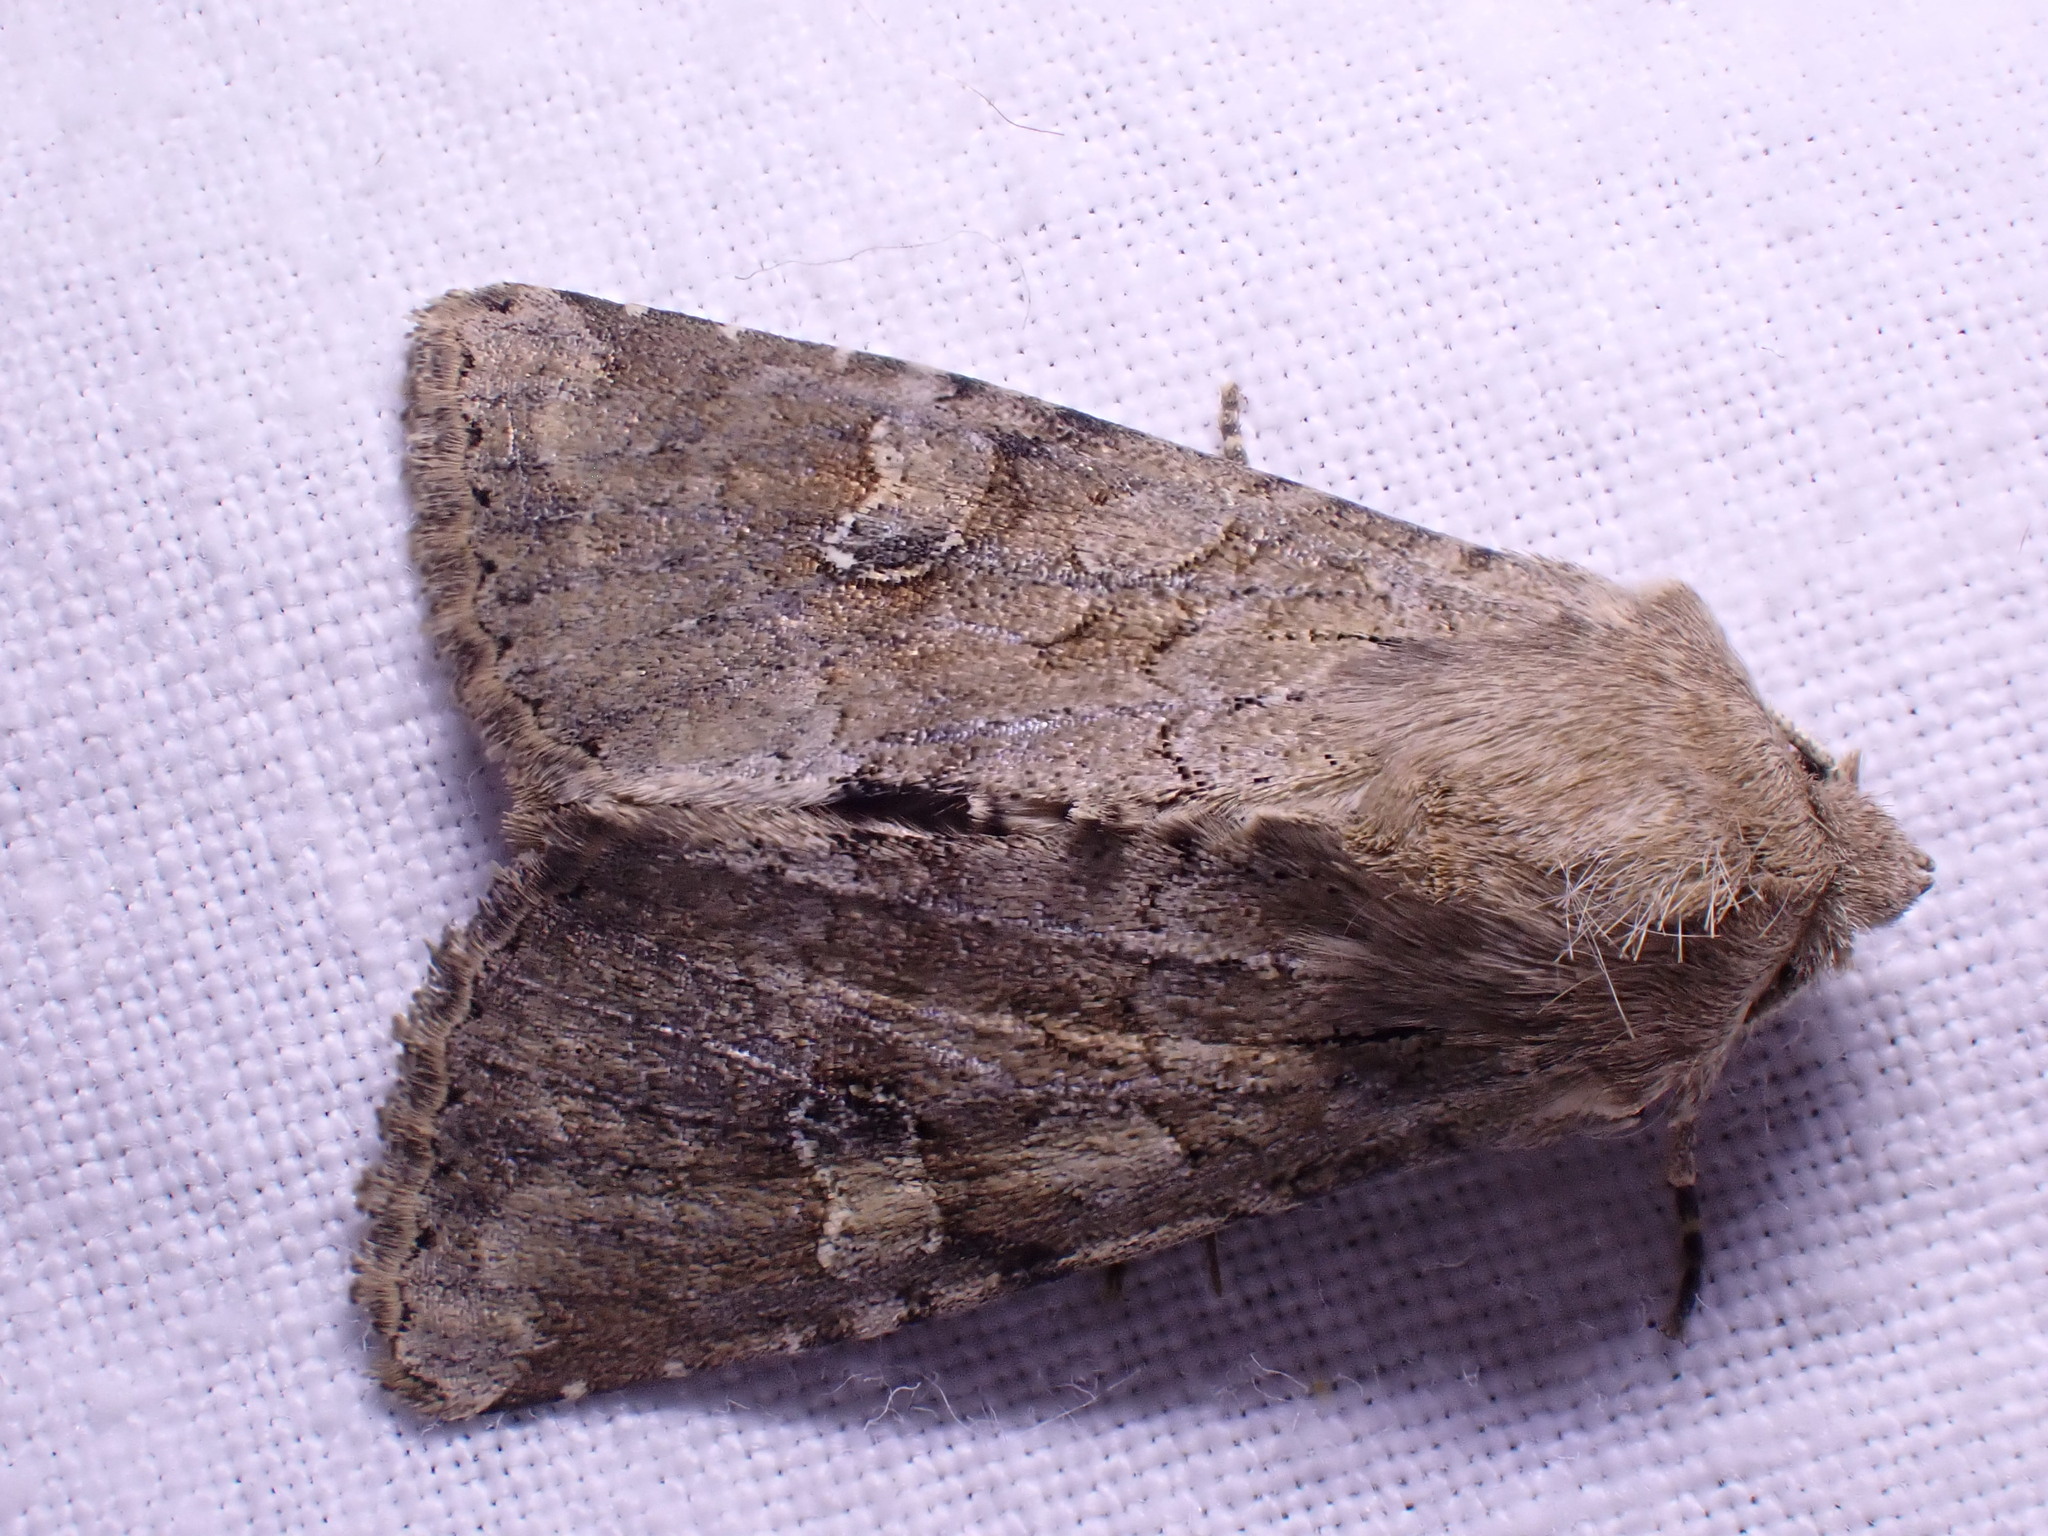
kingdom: Animalia
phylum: Arthropoda
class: Insecta
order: Lepidoptera
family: Noctuidae
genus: Apamea
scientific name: Apamea sordens
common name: Rustic shoulder-knot
